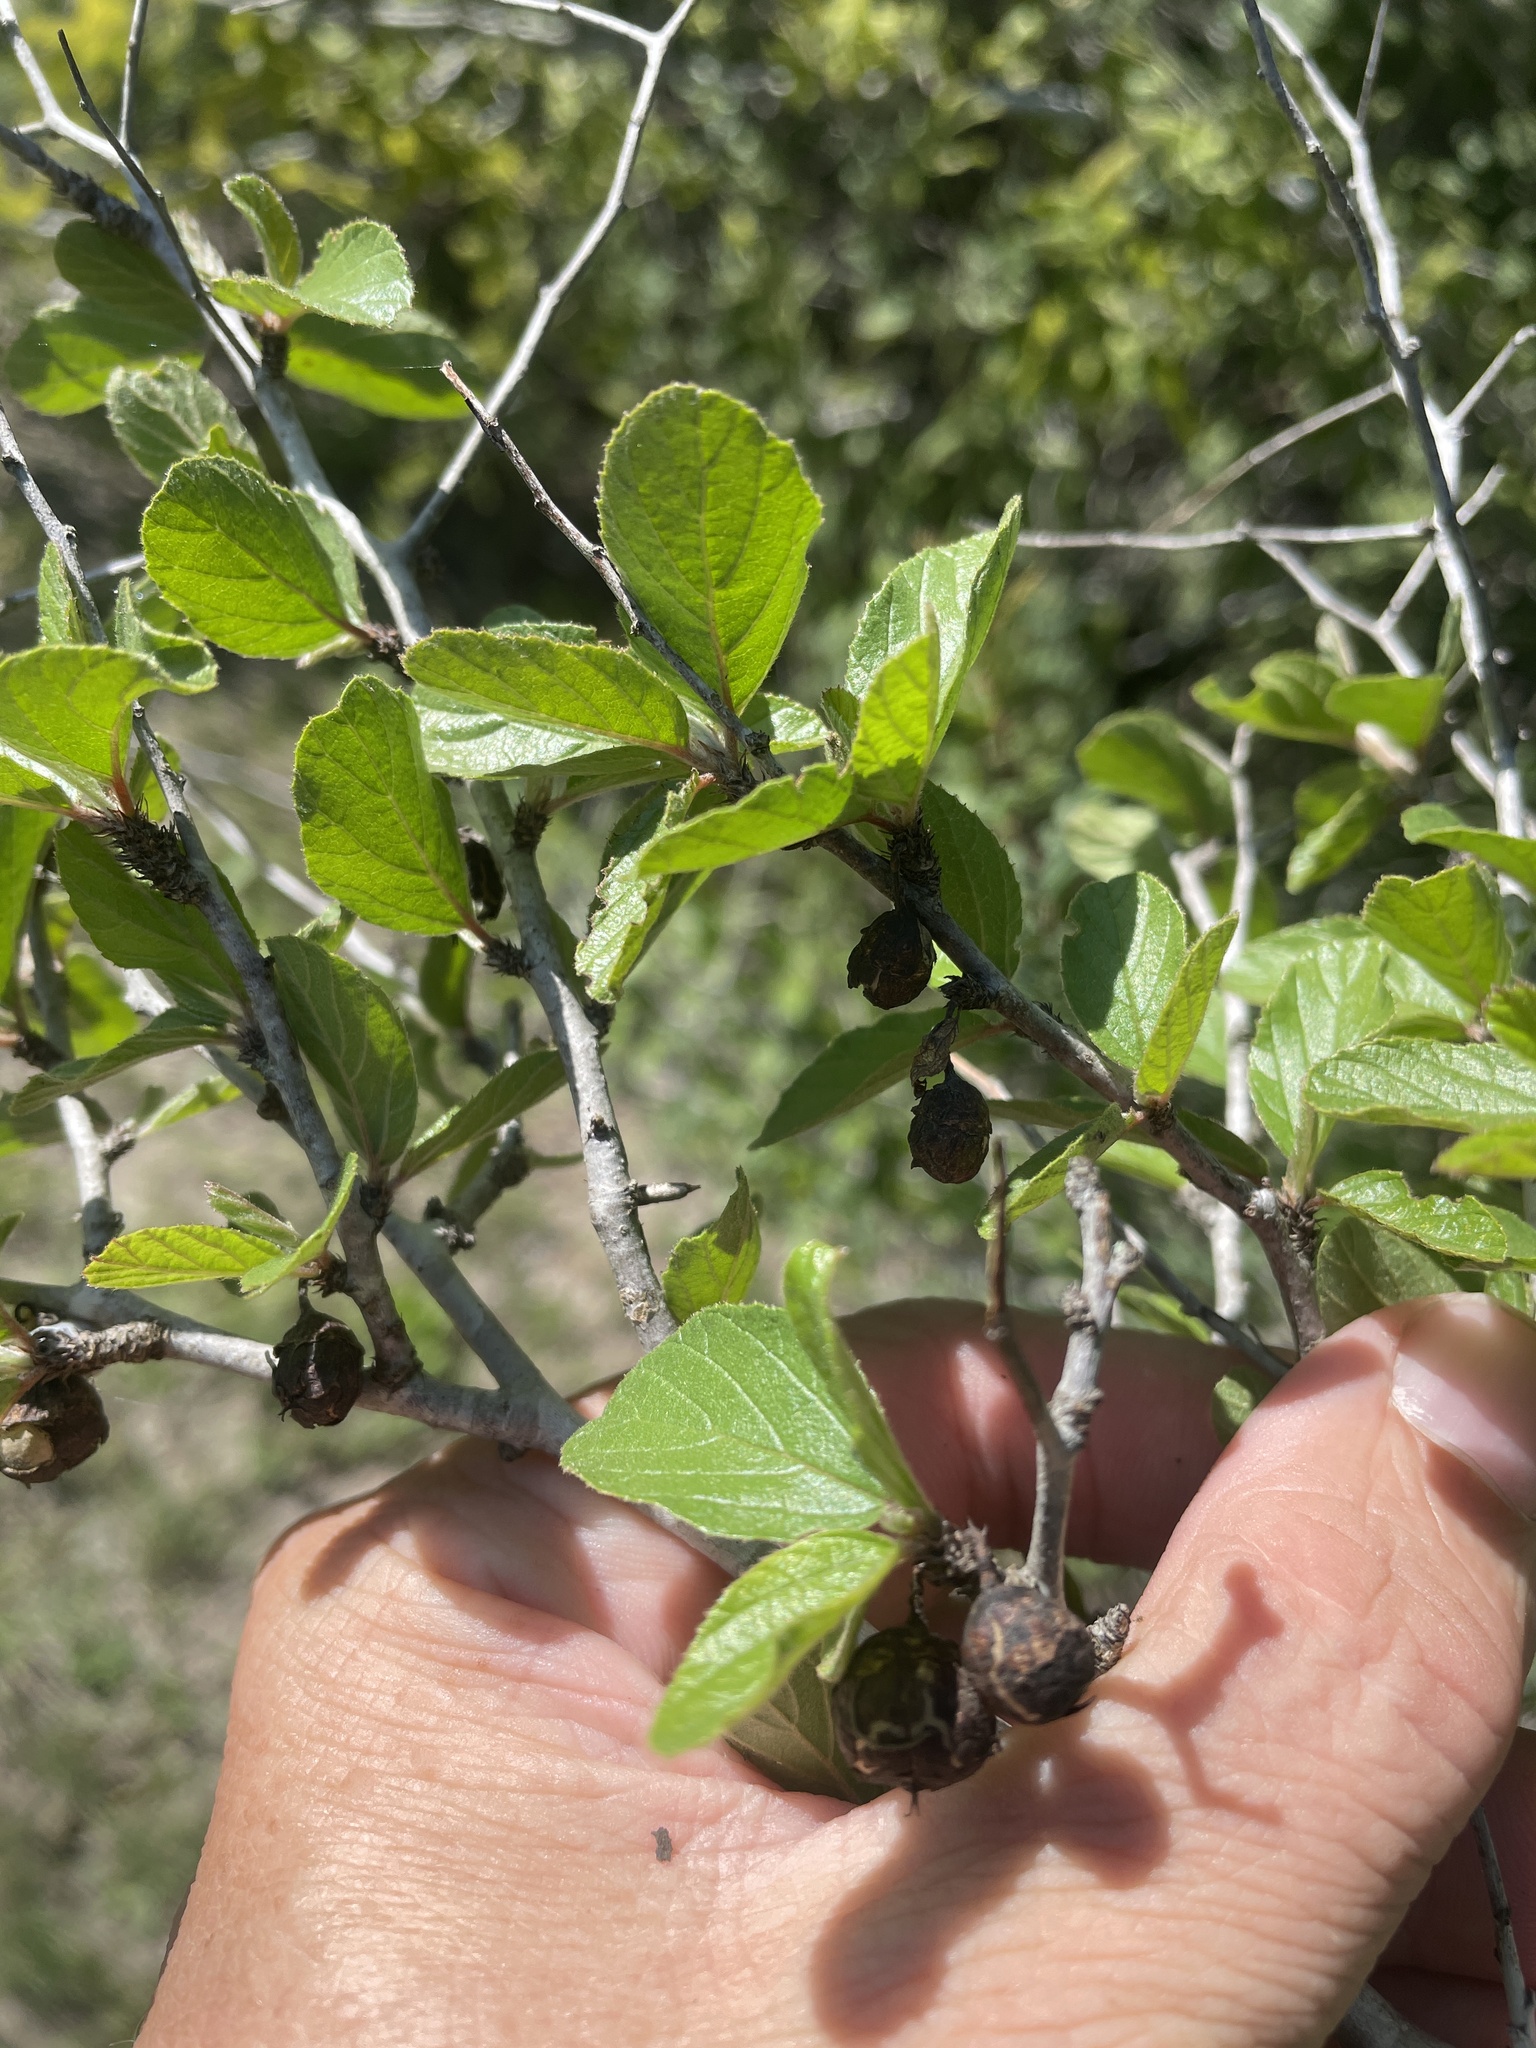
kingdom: Plantae
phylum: Tracheophyta
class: Magnoliopsida
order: Rosales
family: Rhamnaceae
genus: Colubrina
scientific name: Colubrina texensis
